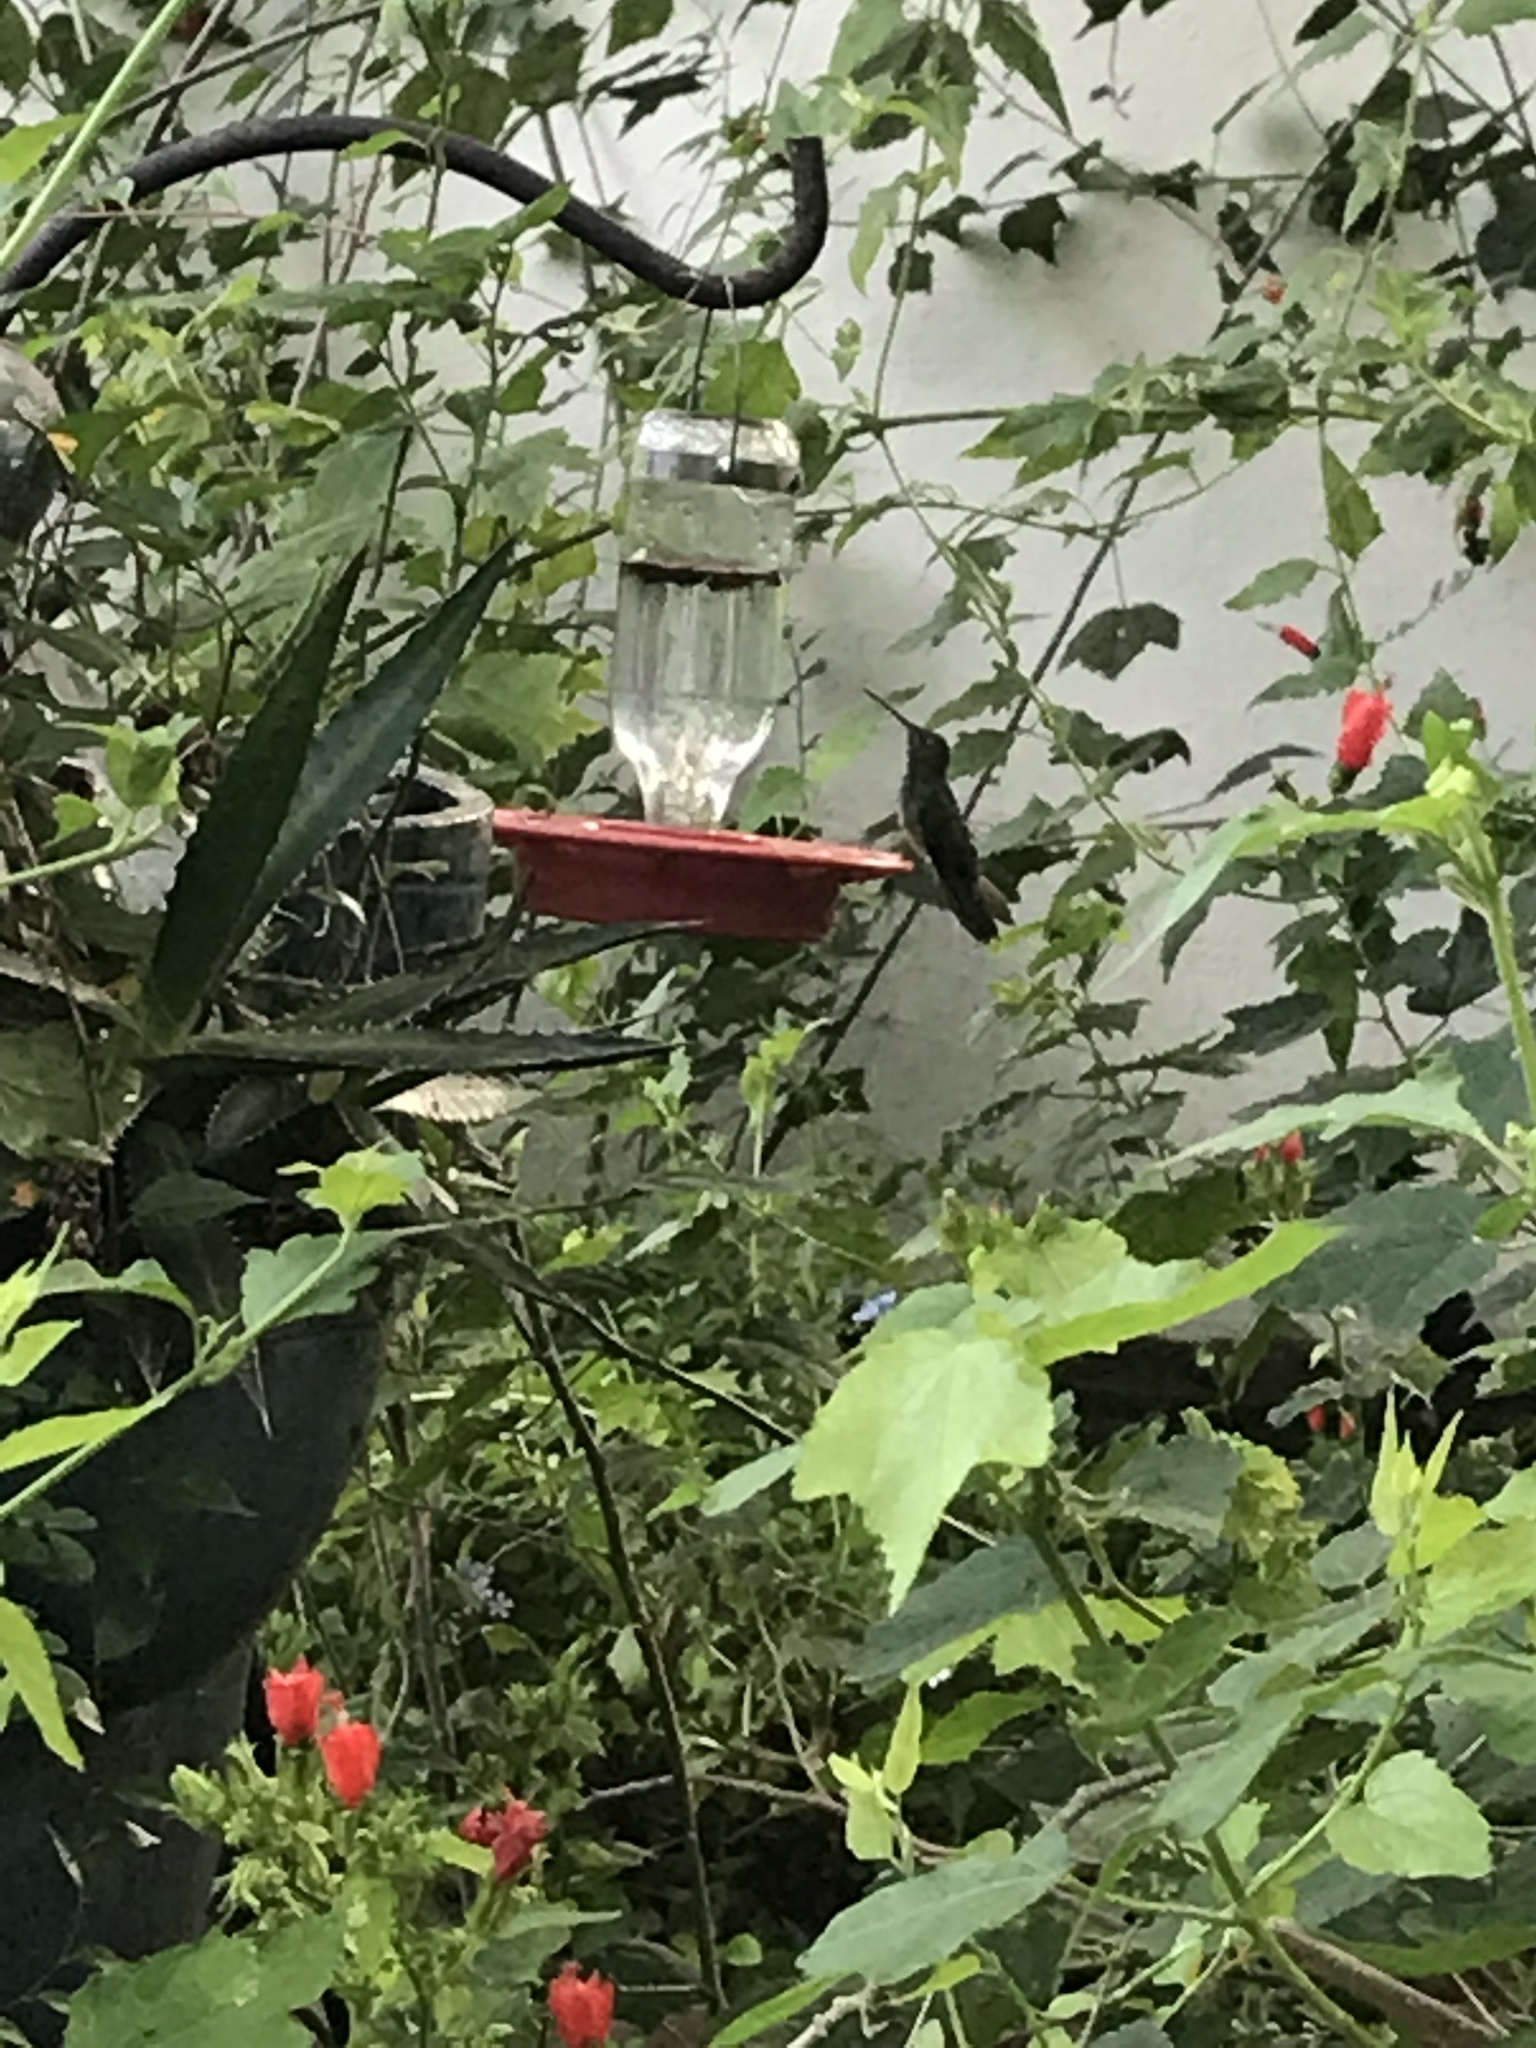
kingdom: Animalia
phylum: Chordata
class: Aves
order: Apodiformes
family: Trochilidae
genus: Amazilia
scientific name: Amazilia yucatanensis
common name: Buff-bellied hummingbird
